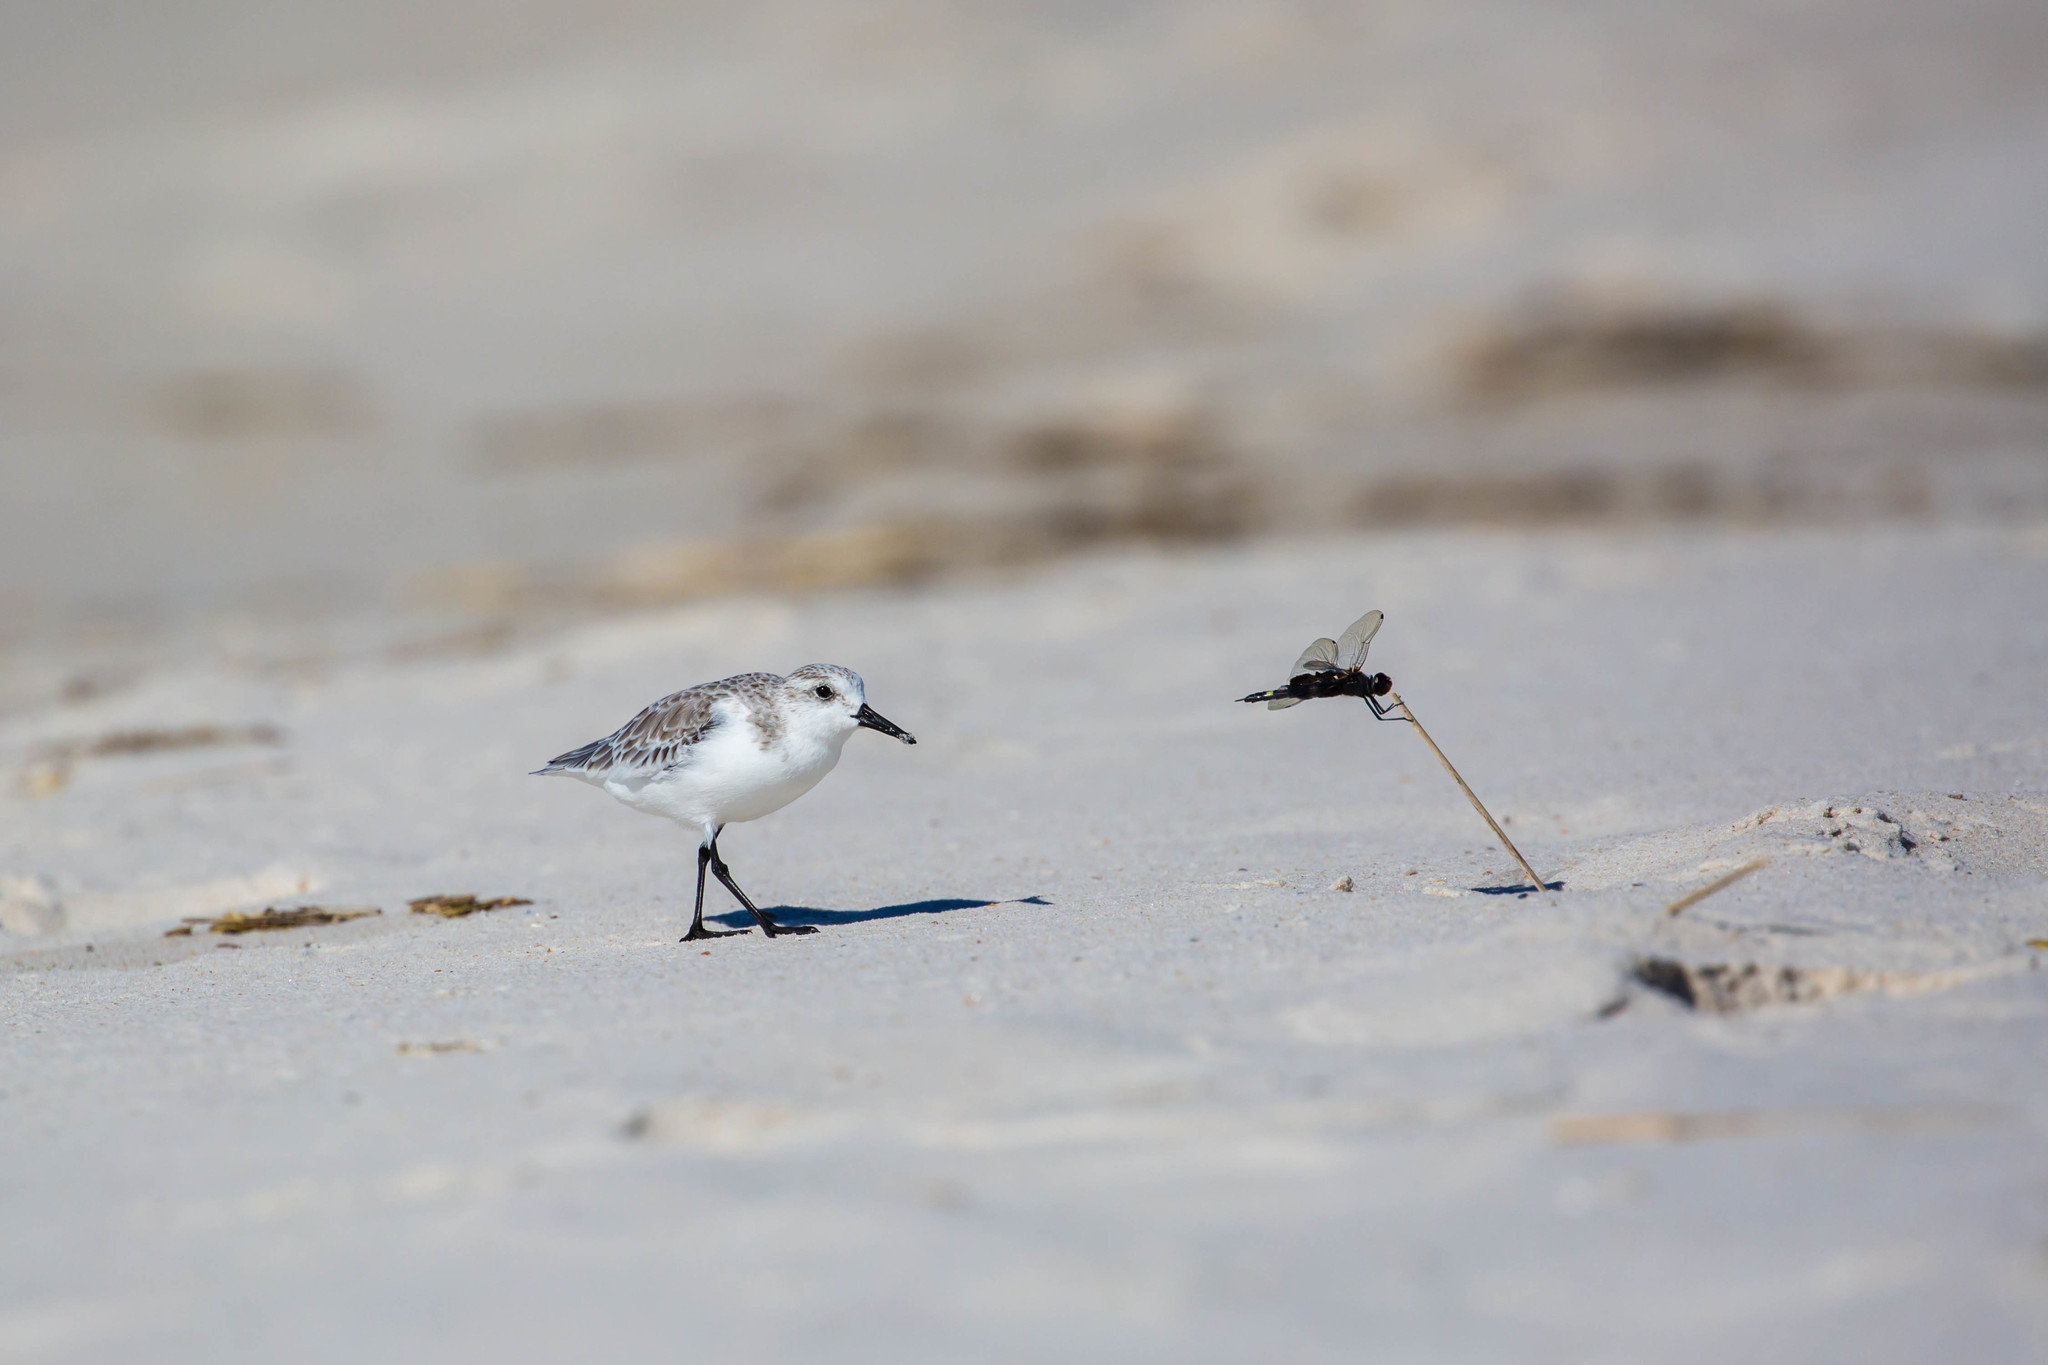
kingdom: Animalia
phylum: Arthropoda
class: Insecta
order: Odonata
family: Libellulidae
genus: Tramea
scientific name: Tramea lacerata
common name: Black saddlebags
